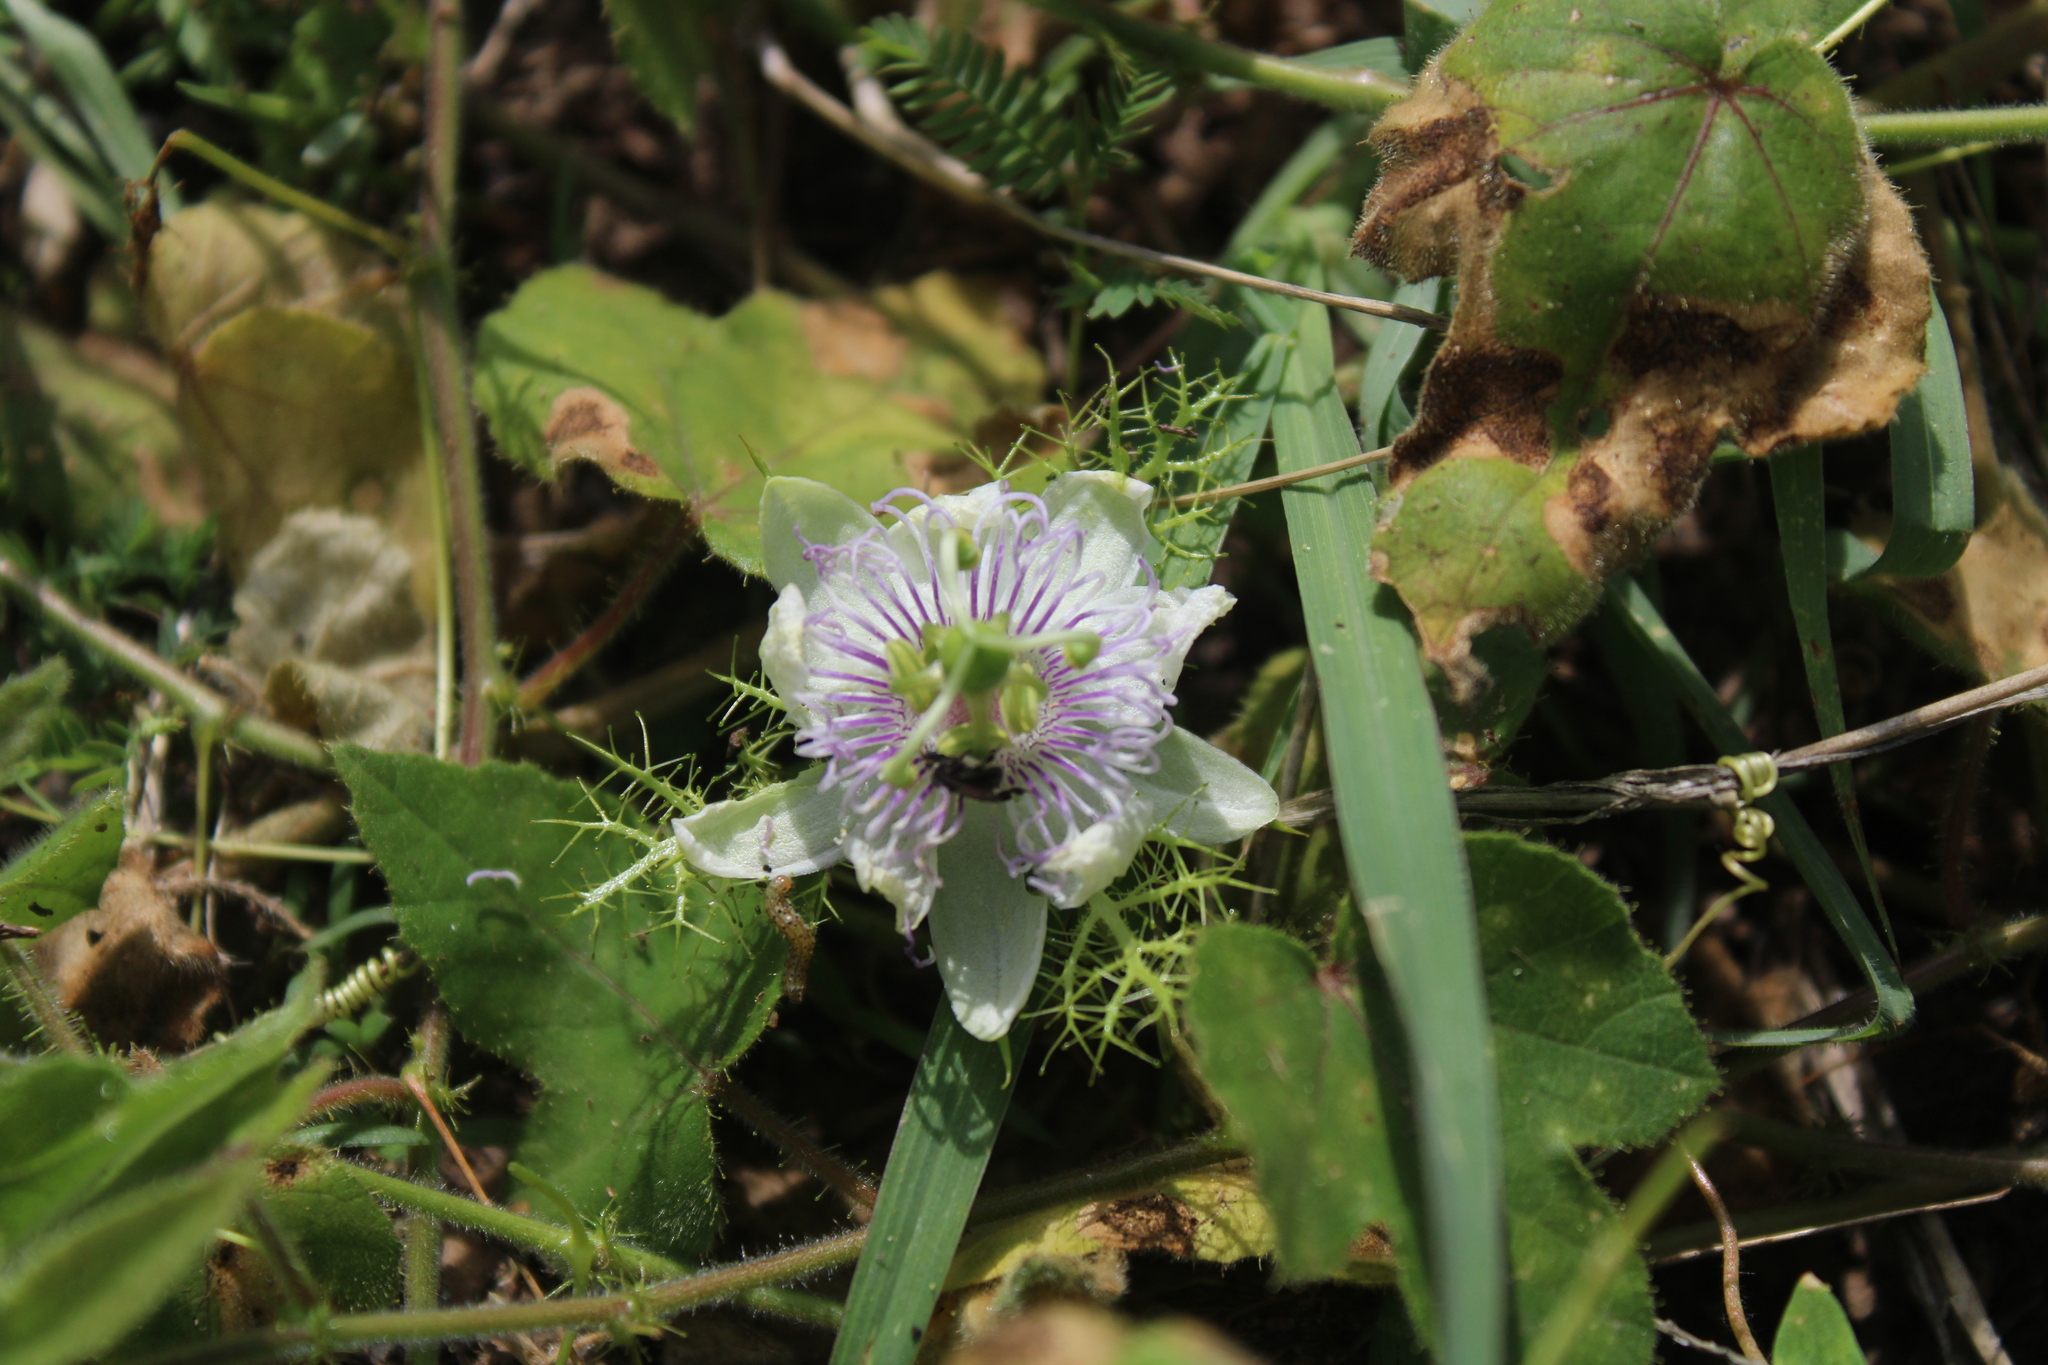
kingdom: Plantae
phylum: Tracheophyta
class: Magnoliopsida
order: Malpighiales
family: Passifloraceae
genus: Passiflora
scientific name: Passiflora foetida
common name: Fetid passionflower
